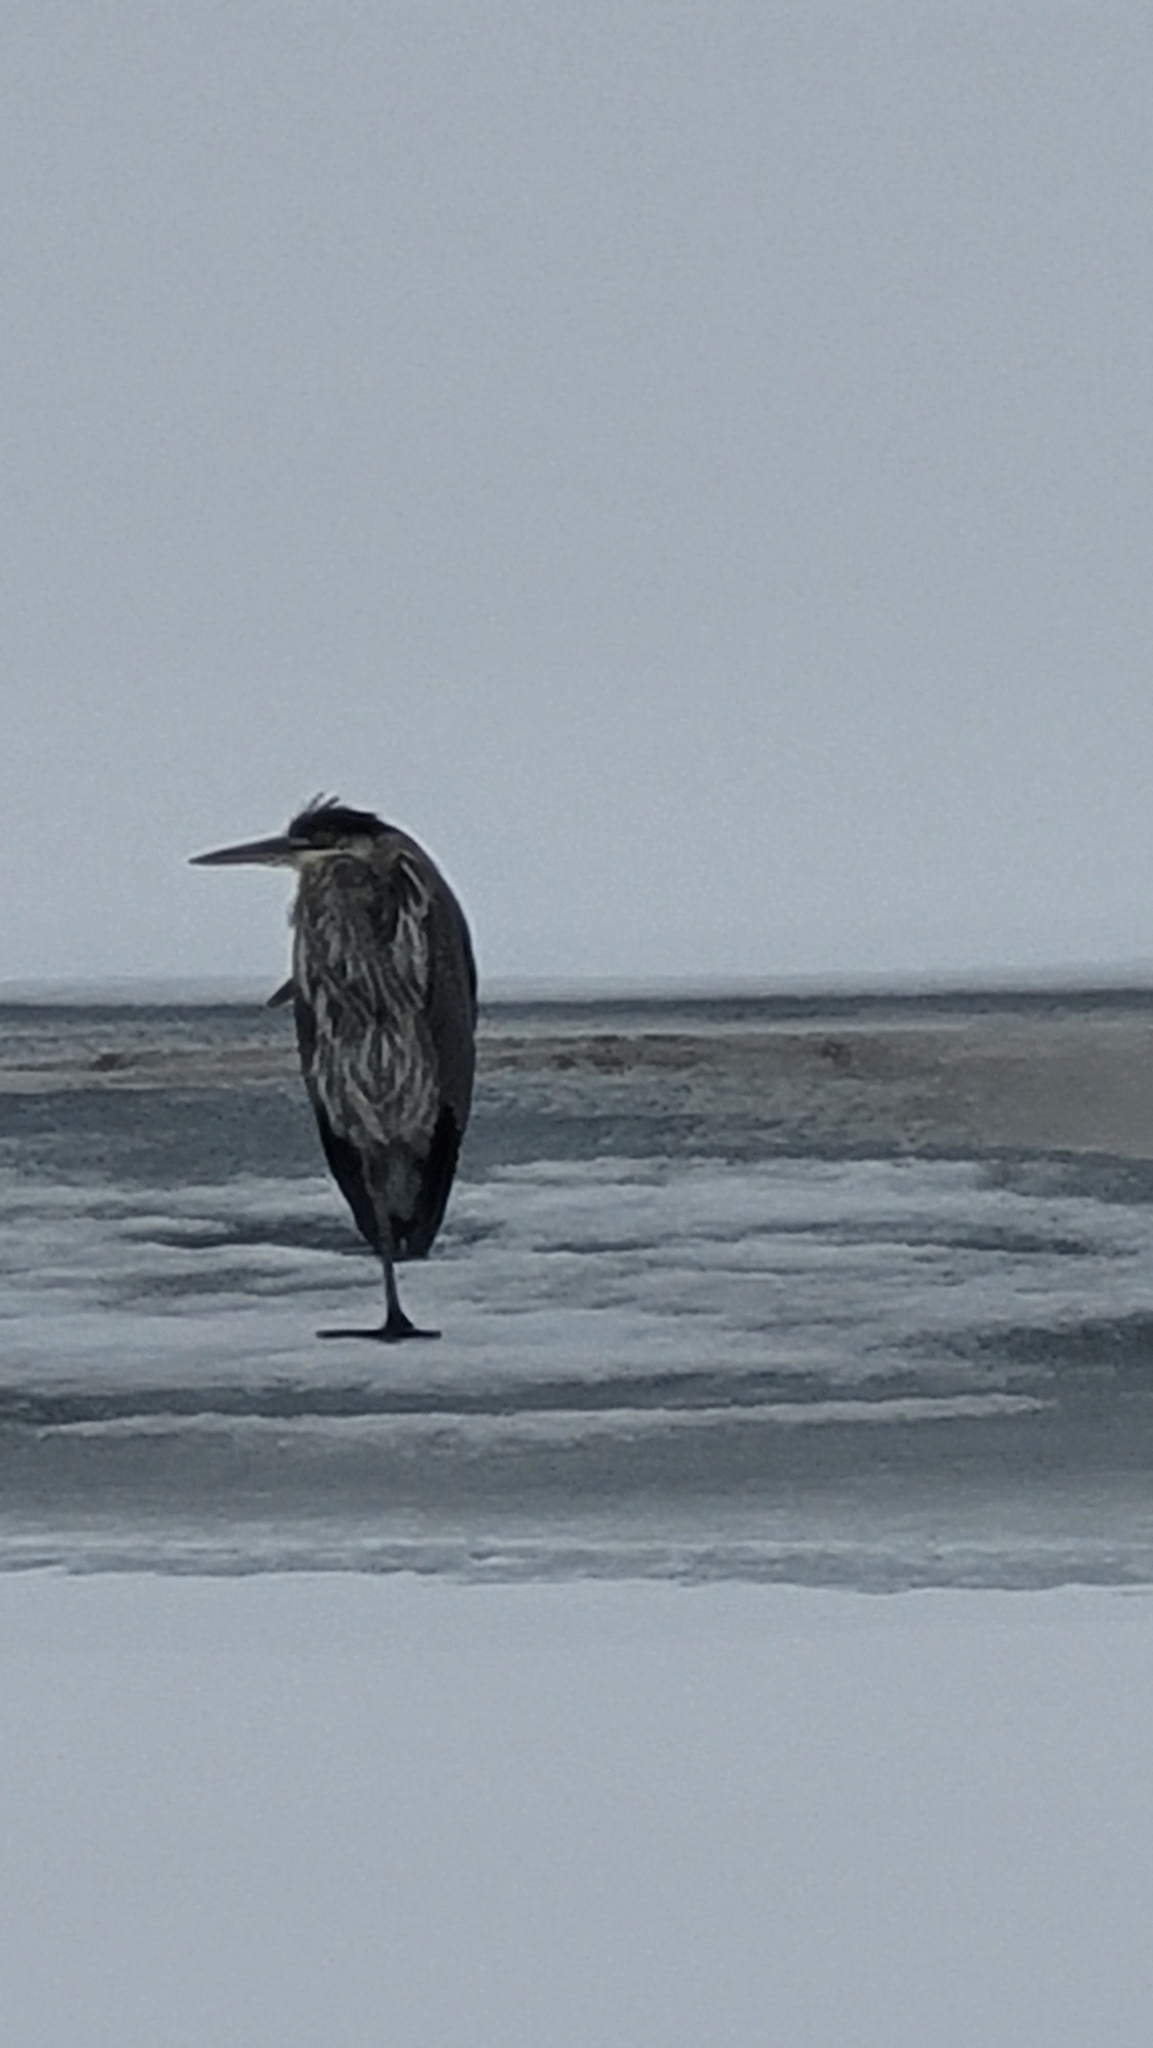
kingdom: Animalia
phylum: Chordata
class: Aves
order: Pelecaniformes
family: Ardeidae
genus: Ardea
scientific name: Ardea herodias
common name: Great blue heron
